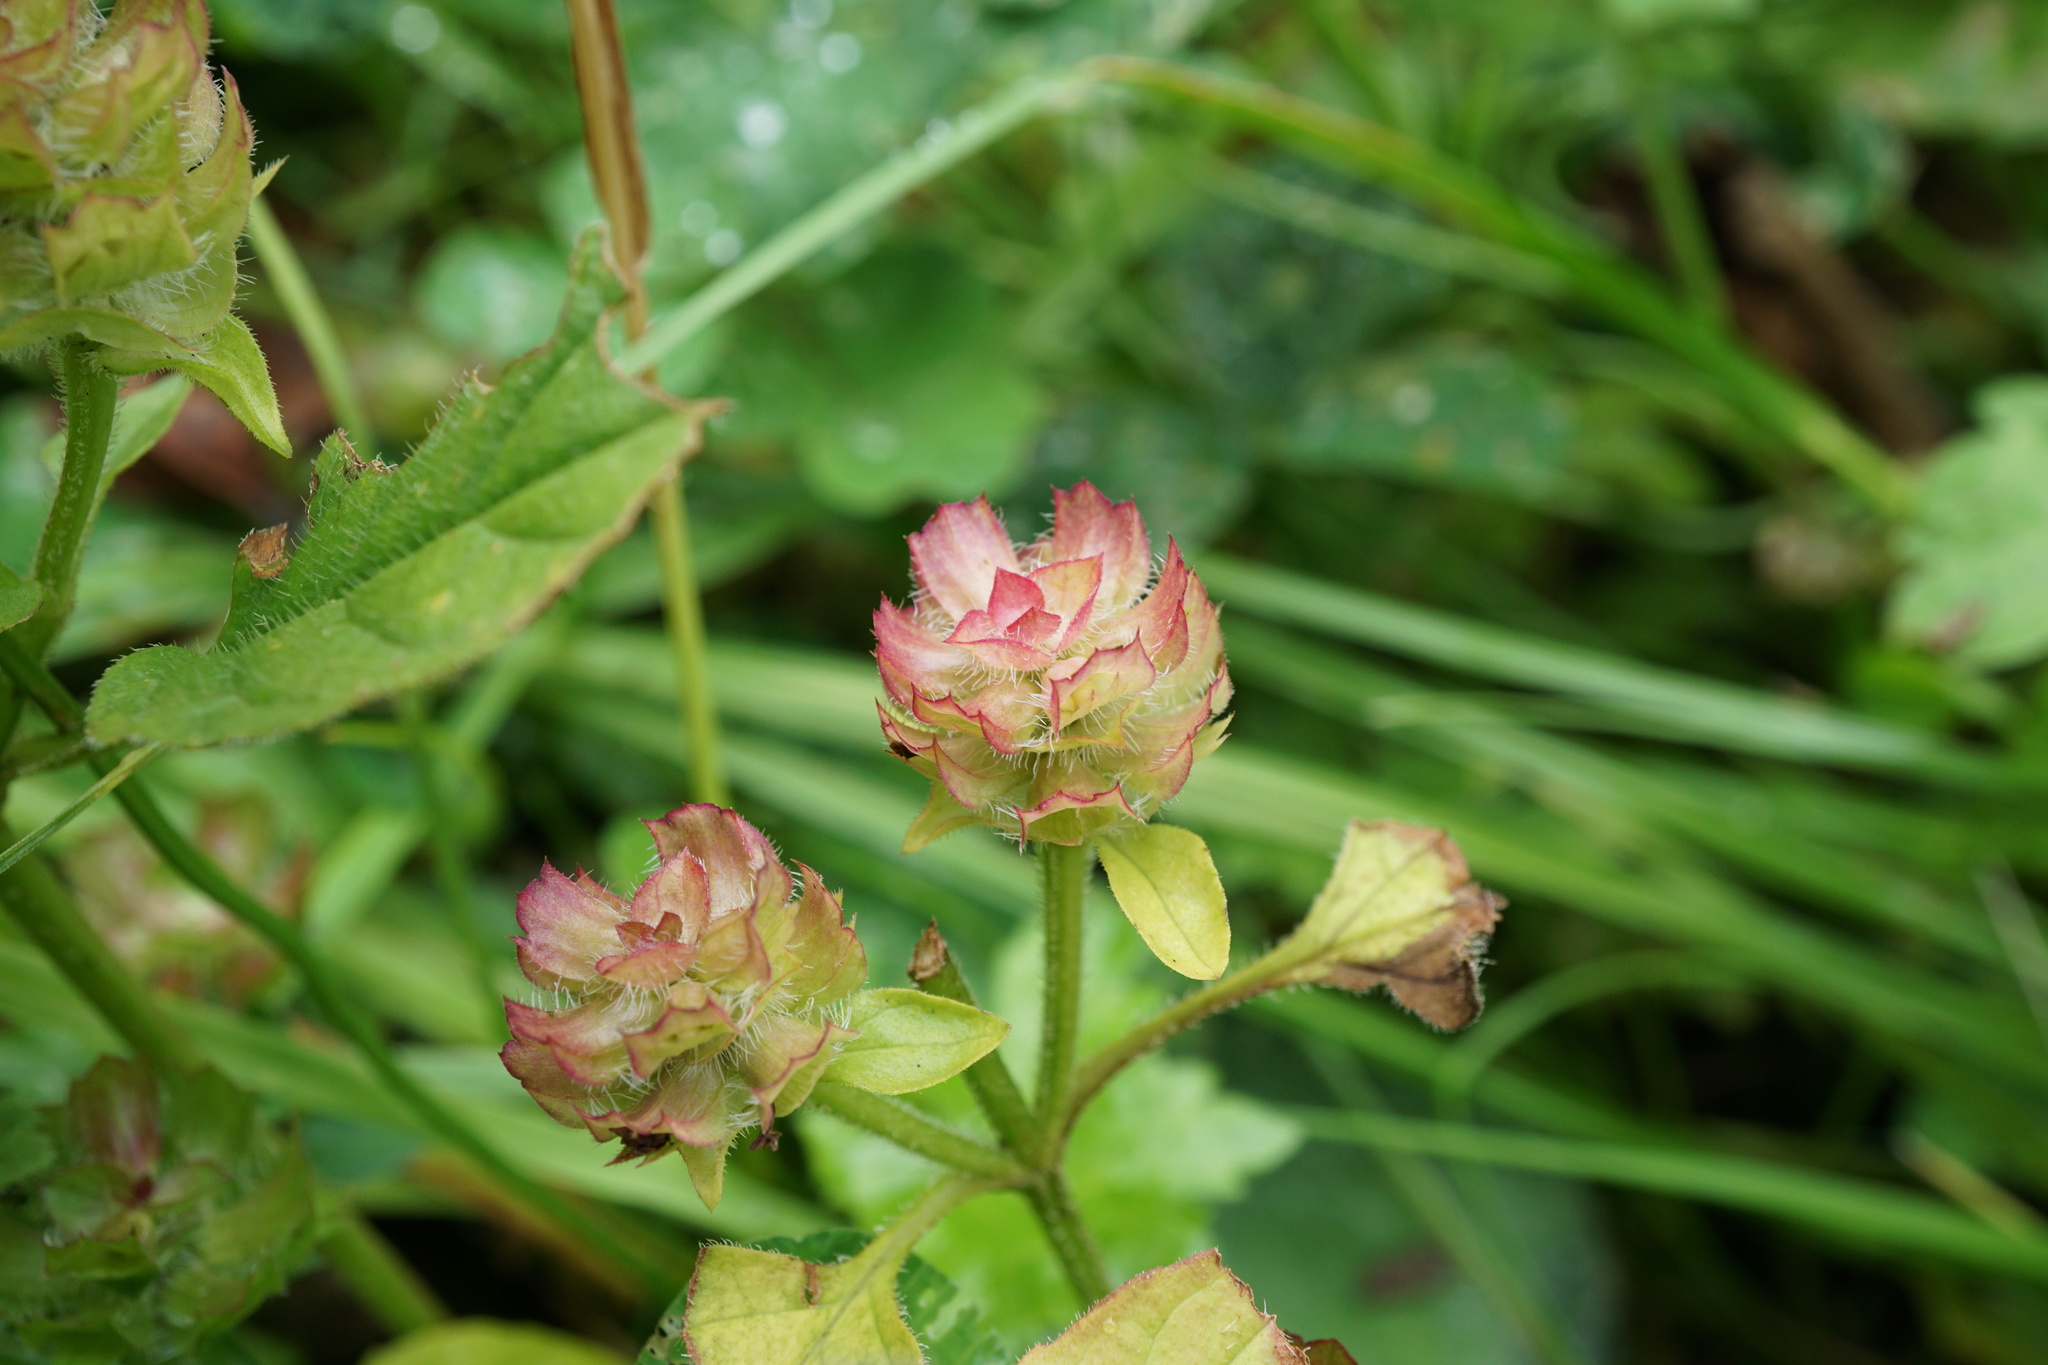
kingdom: Plantae
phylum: Tracheophyta
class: Magnoliopsida
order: Lamiales
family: Lamiaceae
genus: Prunella
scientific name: Prunella vulgaris
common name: Heal-all
